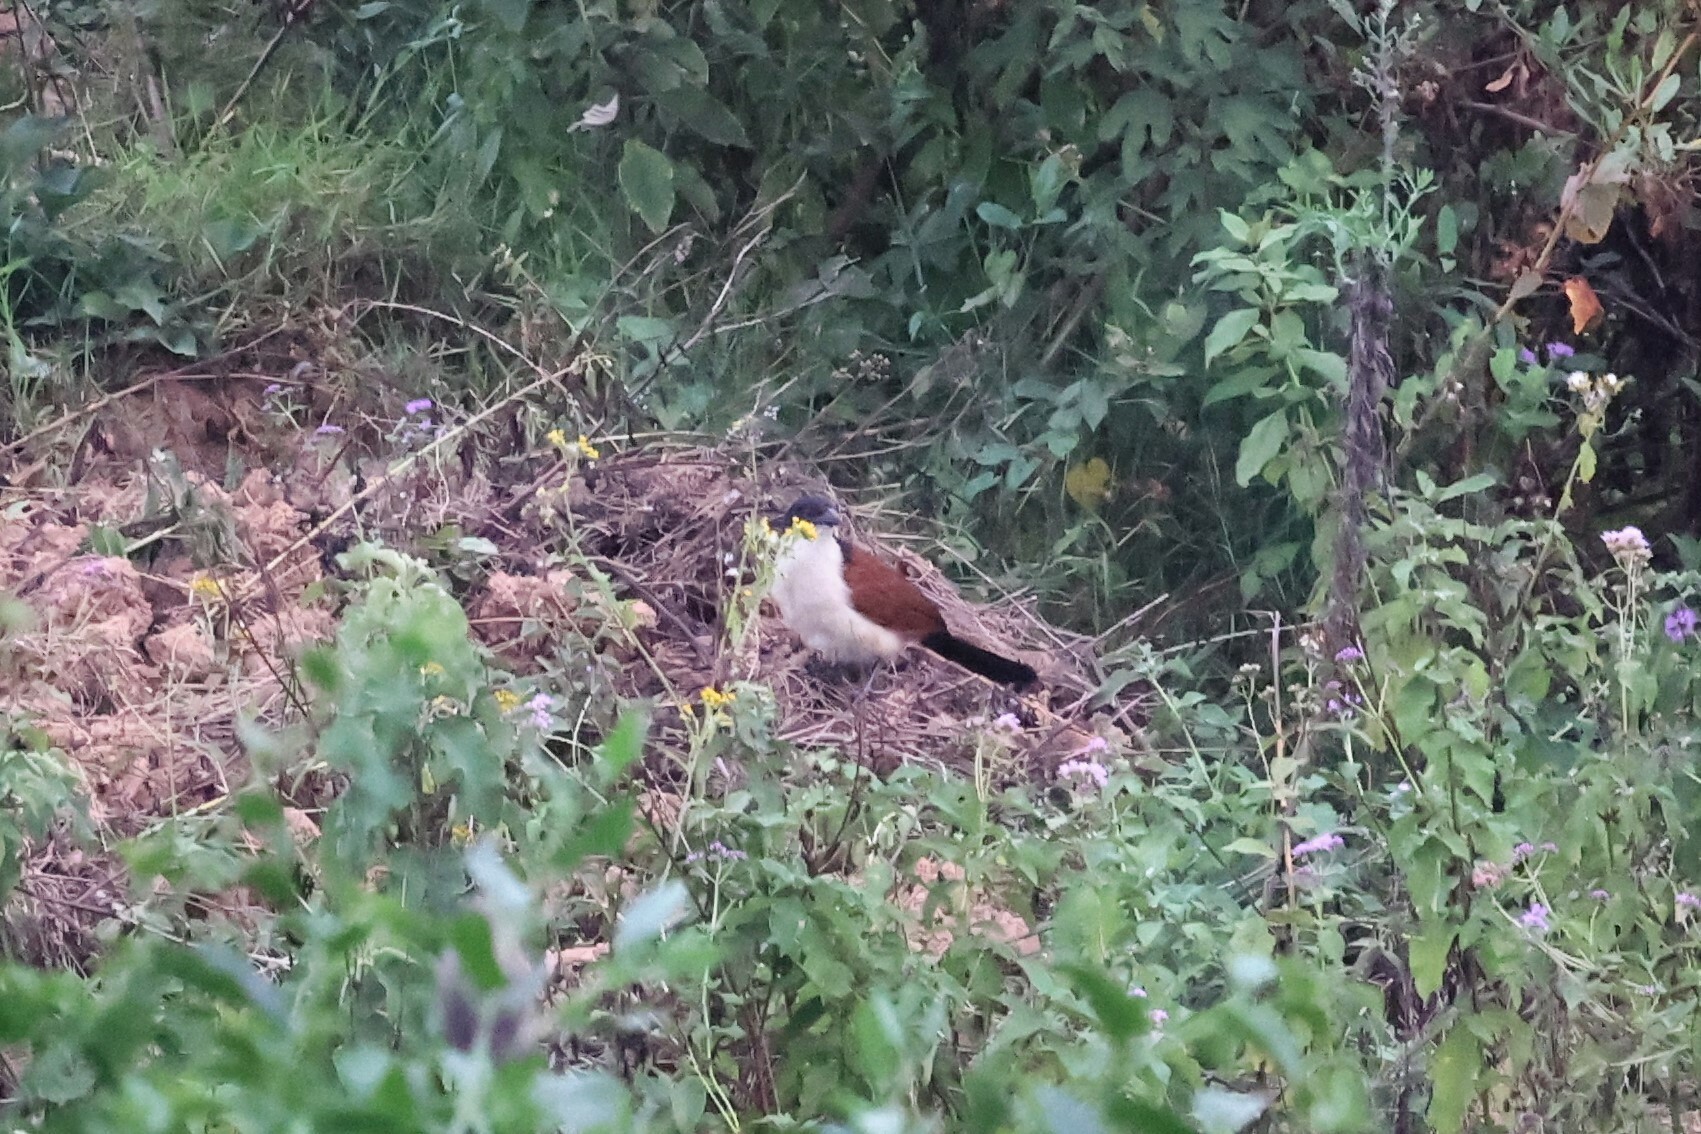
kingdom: Animalia
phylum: Chordata
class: Aves
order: Cuculiformes
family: Cuculidae
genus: Centropus
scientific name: Centropus monachus
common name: Blue-headed coucal
